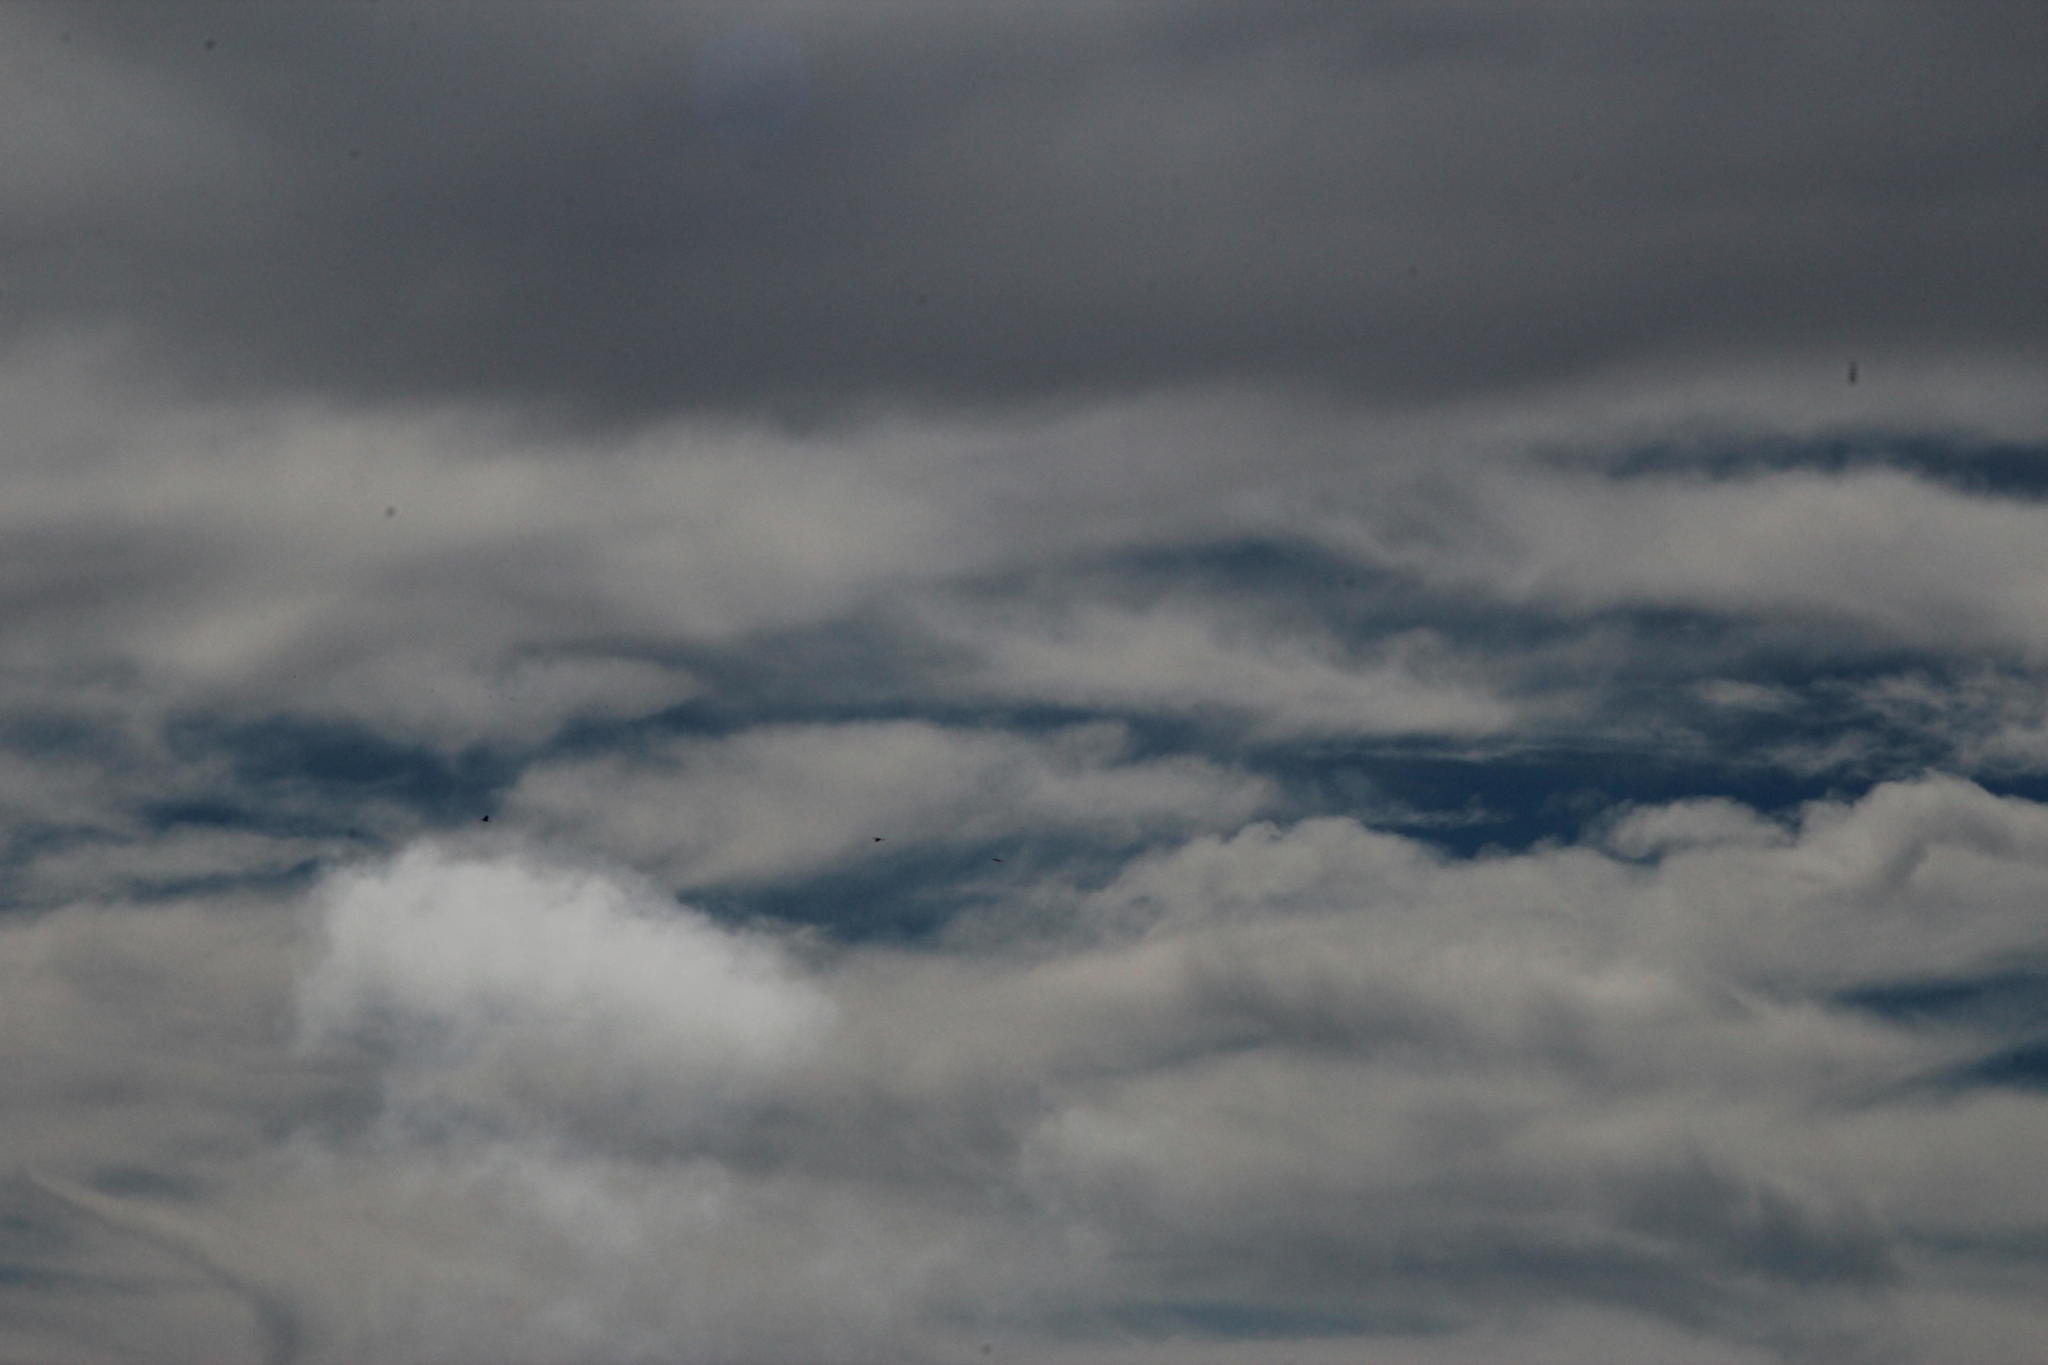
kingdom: Animalia
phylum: Chordata
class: Aves
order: Gruiformes
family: Gruidae
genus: Anthropoides
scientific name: Anthropoides paradiseus
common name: Blue crane
